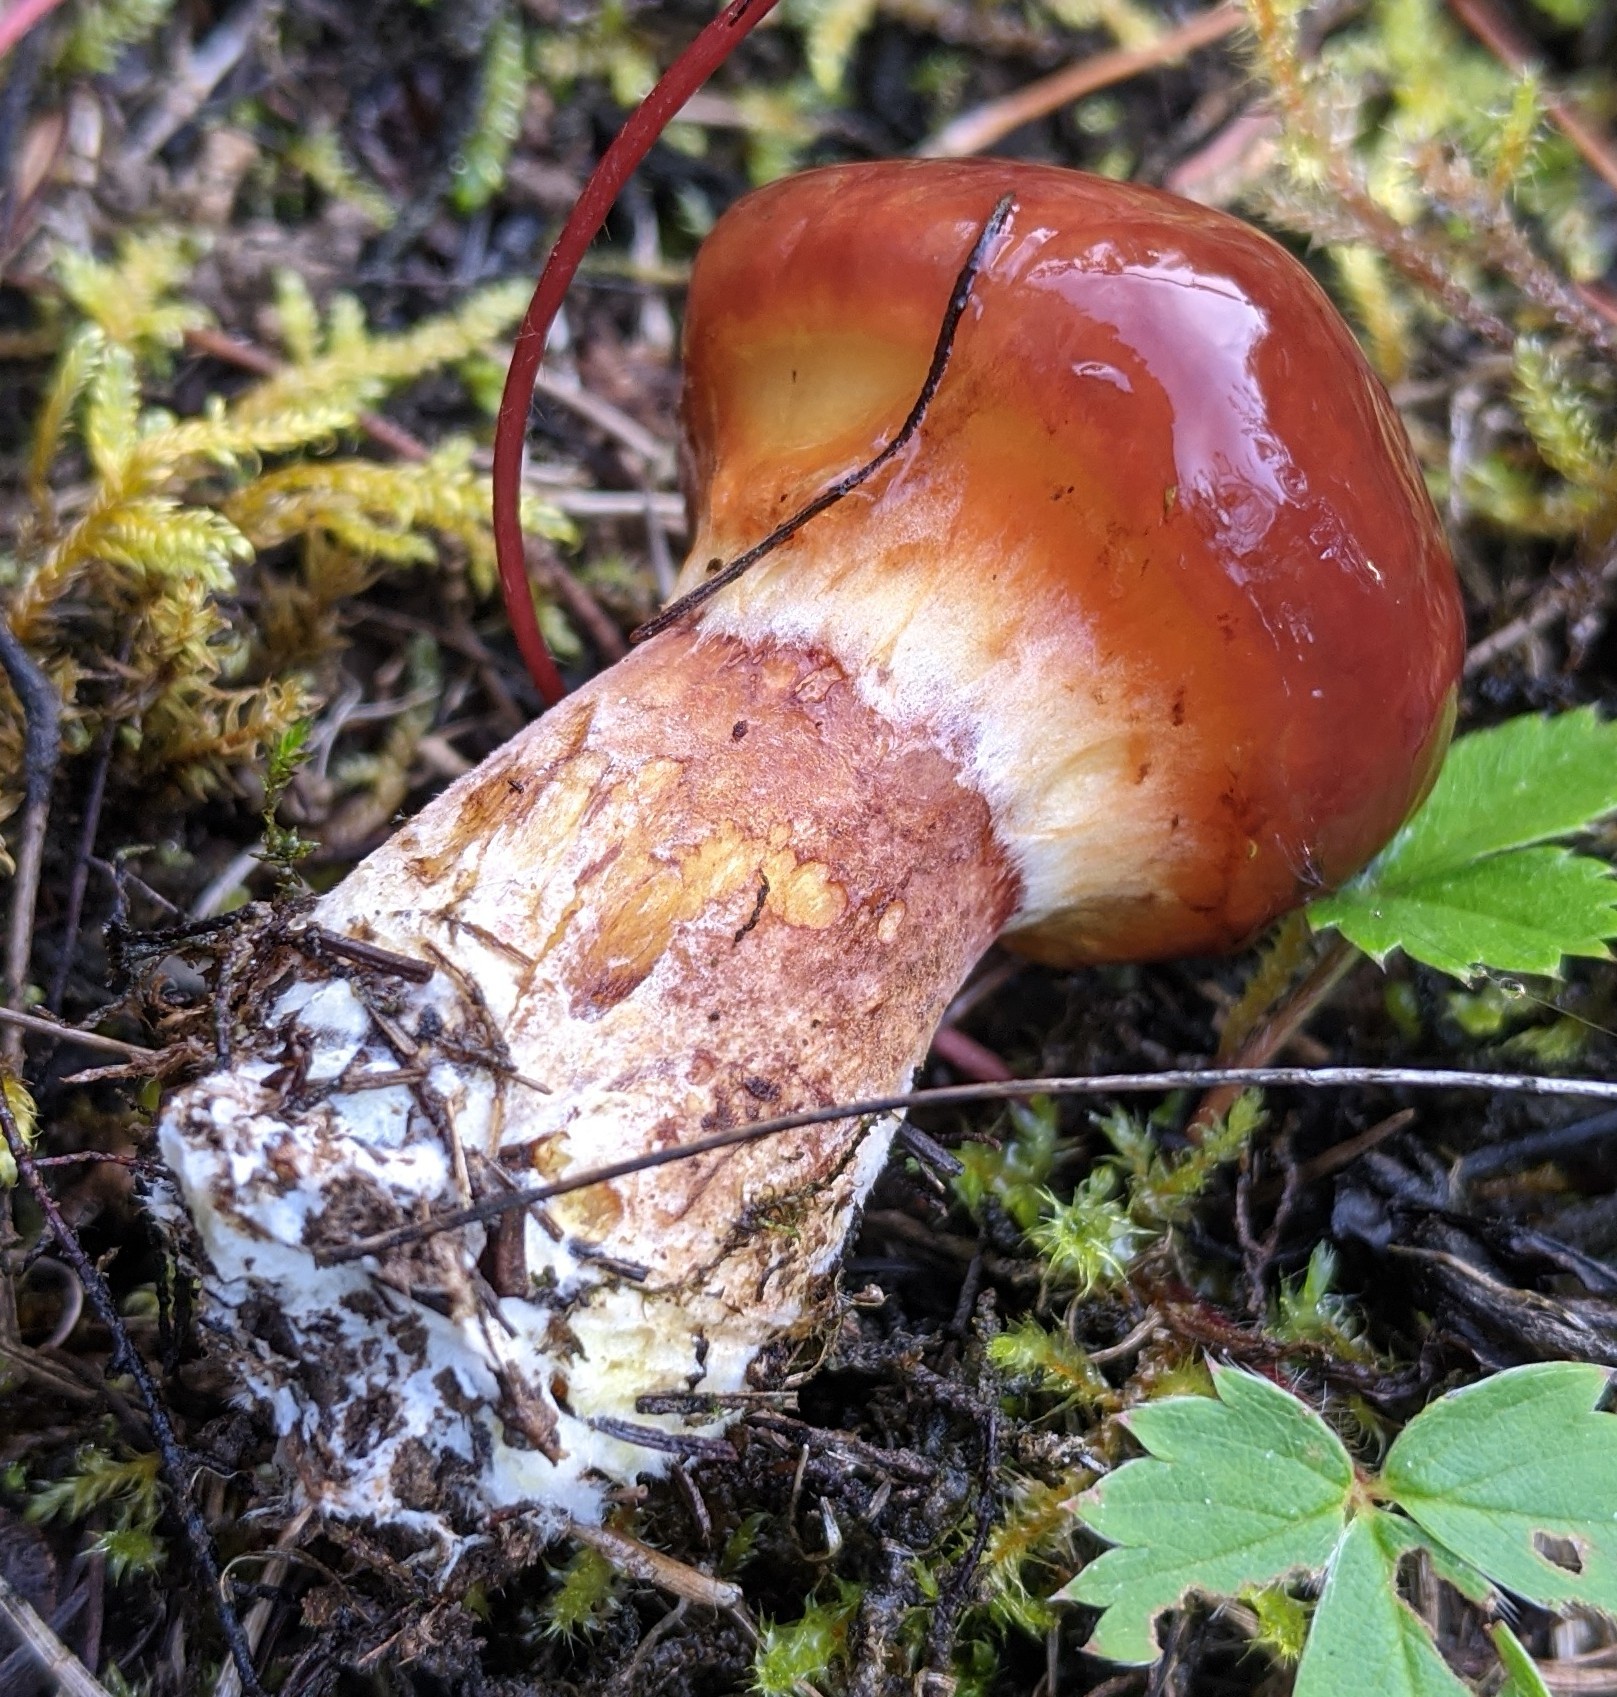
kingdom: Fungi
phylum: Basidiomycota
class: Agaricomycetes
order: Boletales
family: Suillaceae
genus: Suillus
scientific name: Suillus grevillei
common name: Larch bolete
